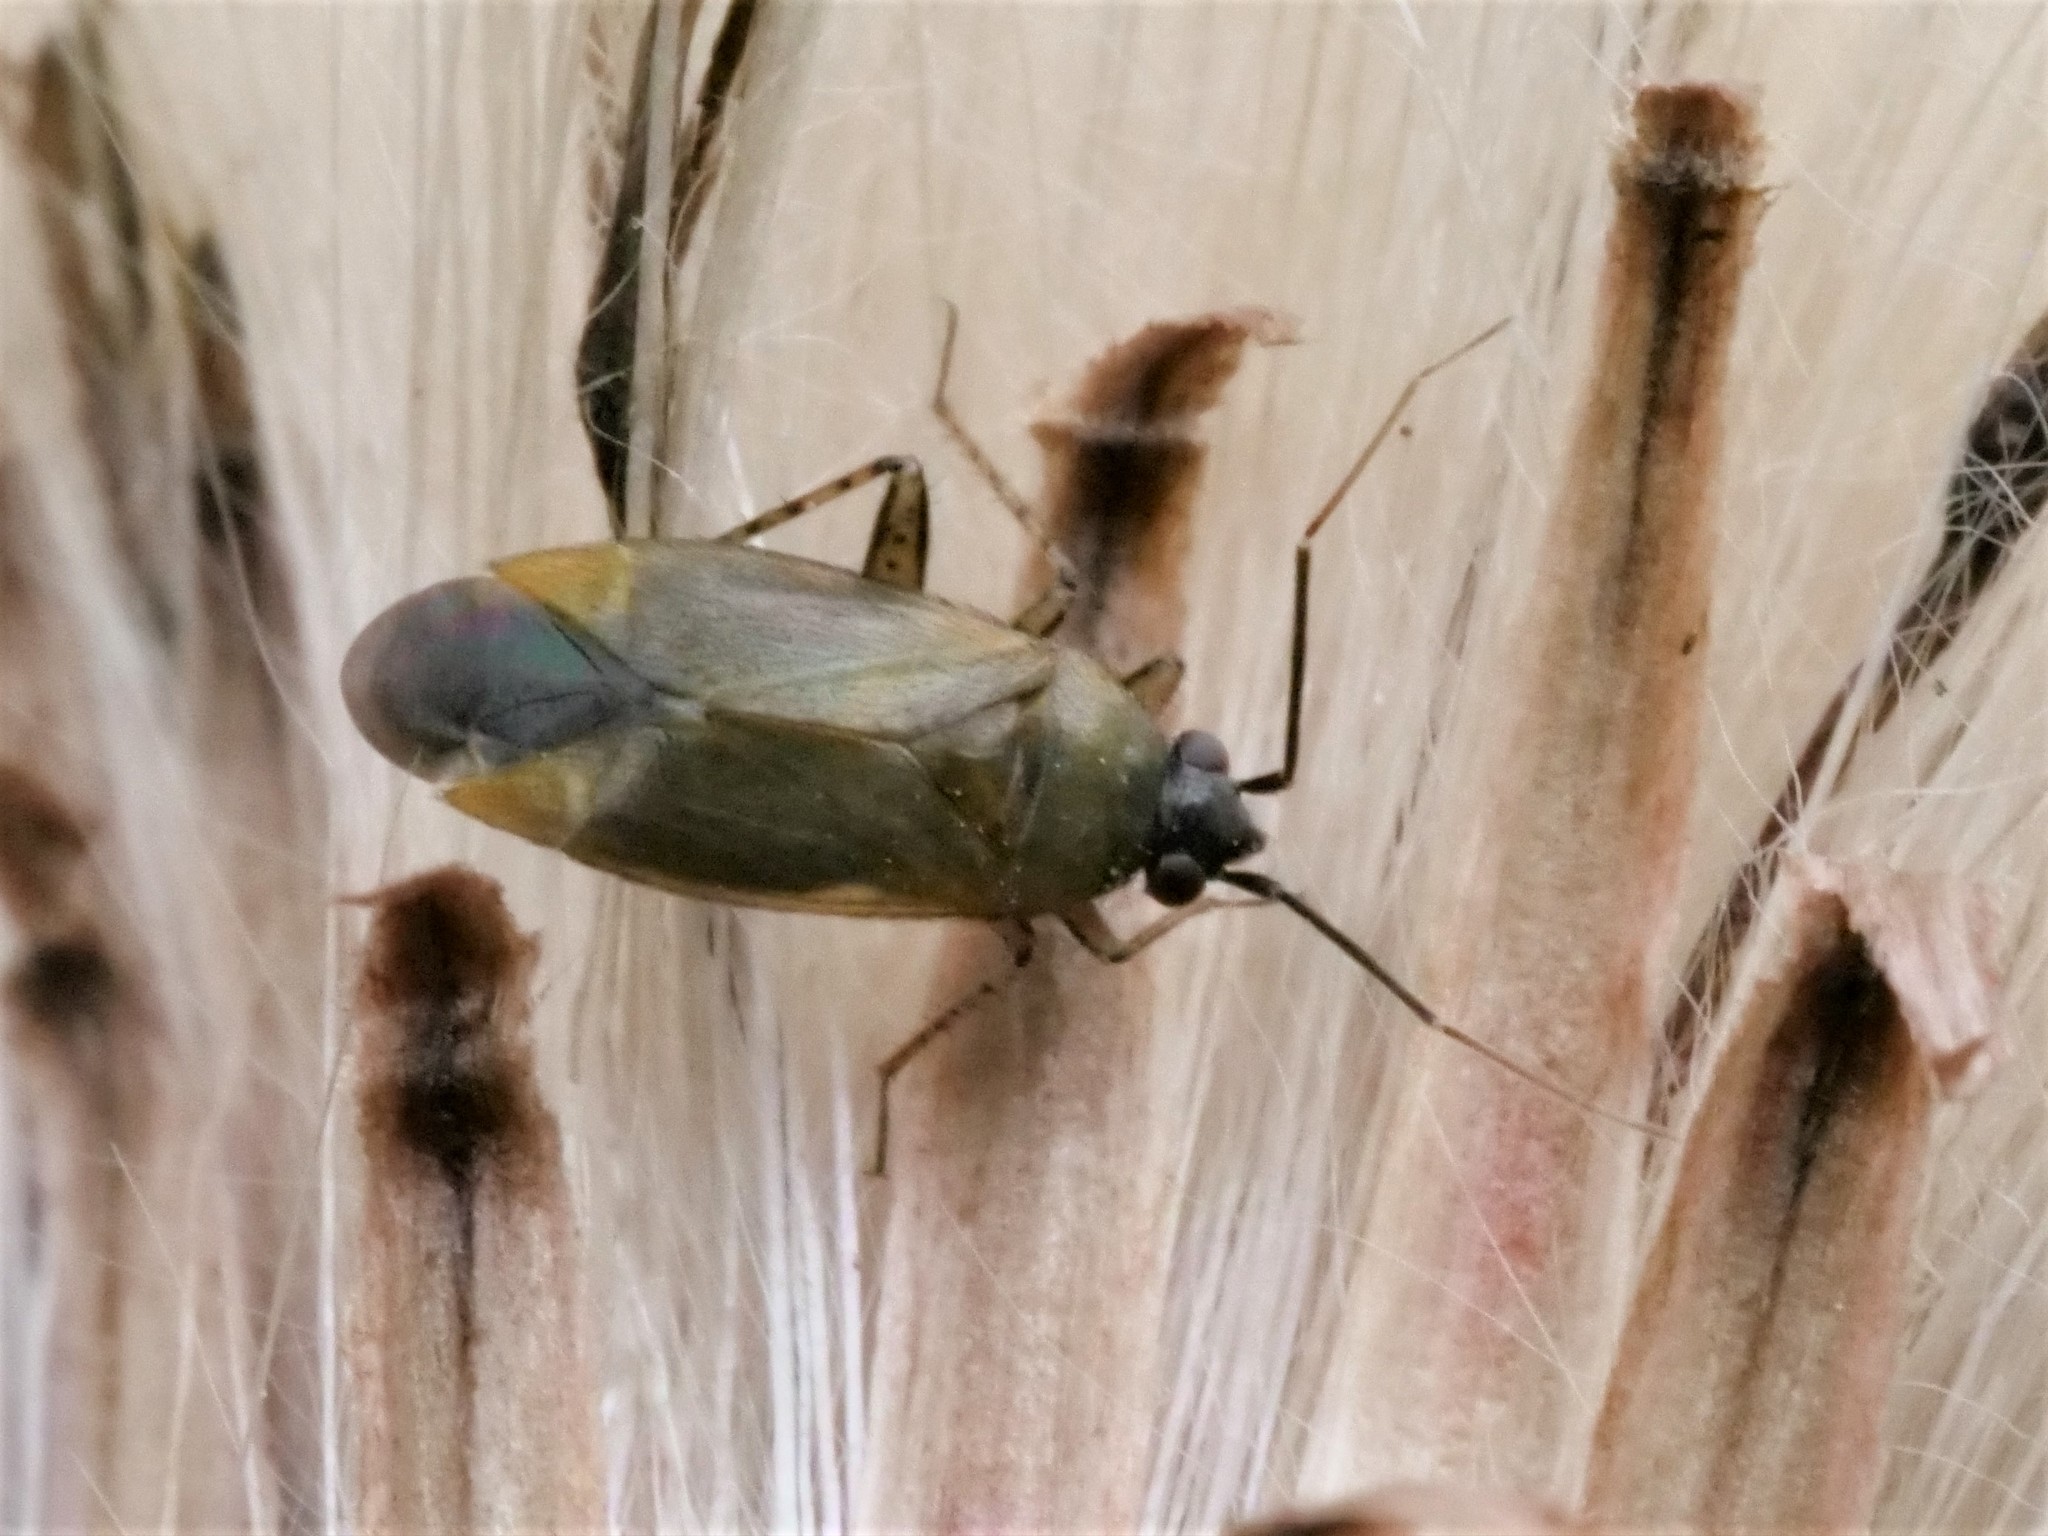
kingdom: Animalia
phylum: Arthropoda
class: Insecta
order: Hemiptera
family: Miridae
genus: Plagiognathus
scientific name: Plagiognathus arbustorum
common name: Plant bug
